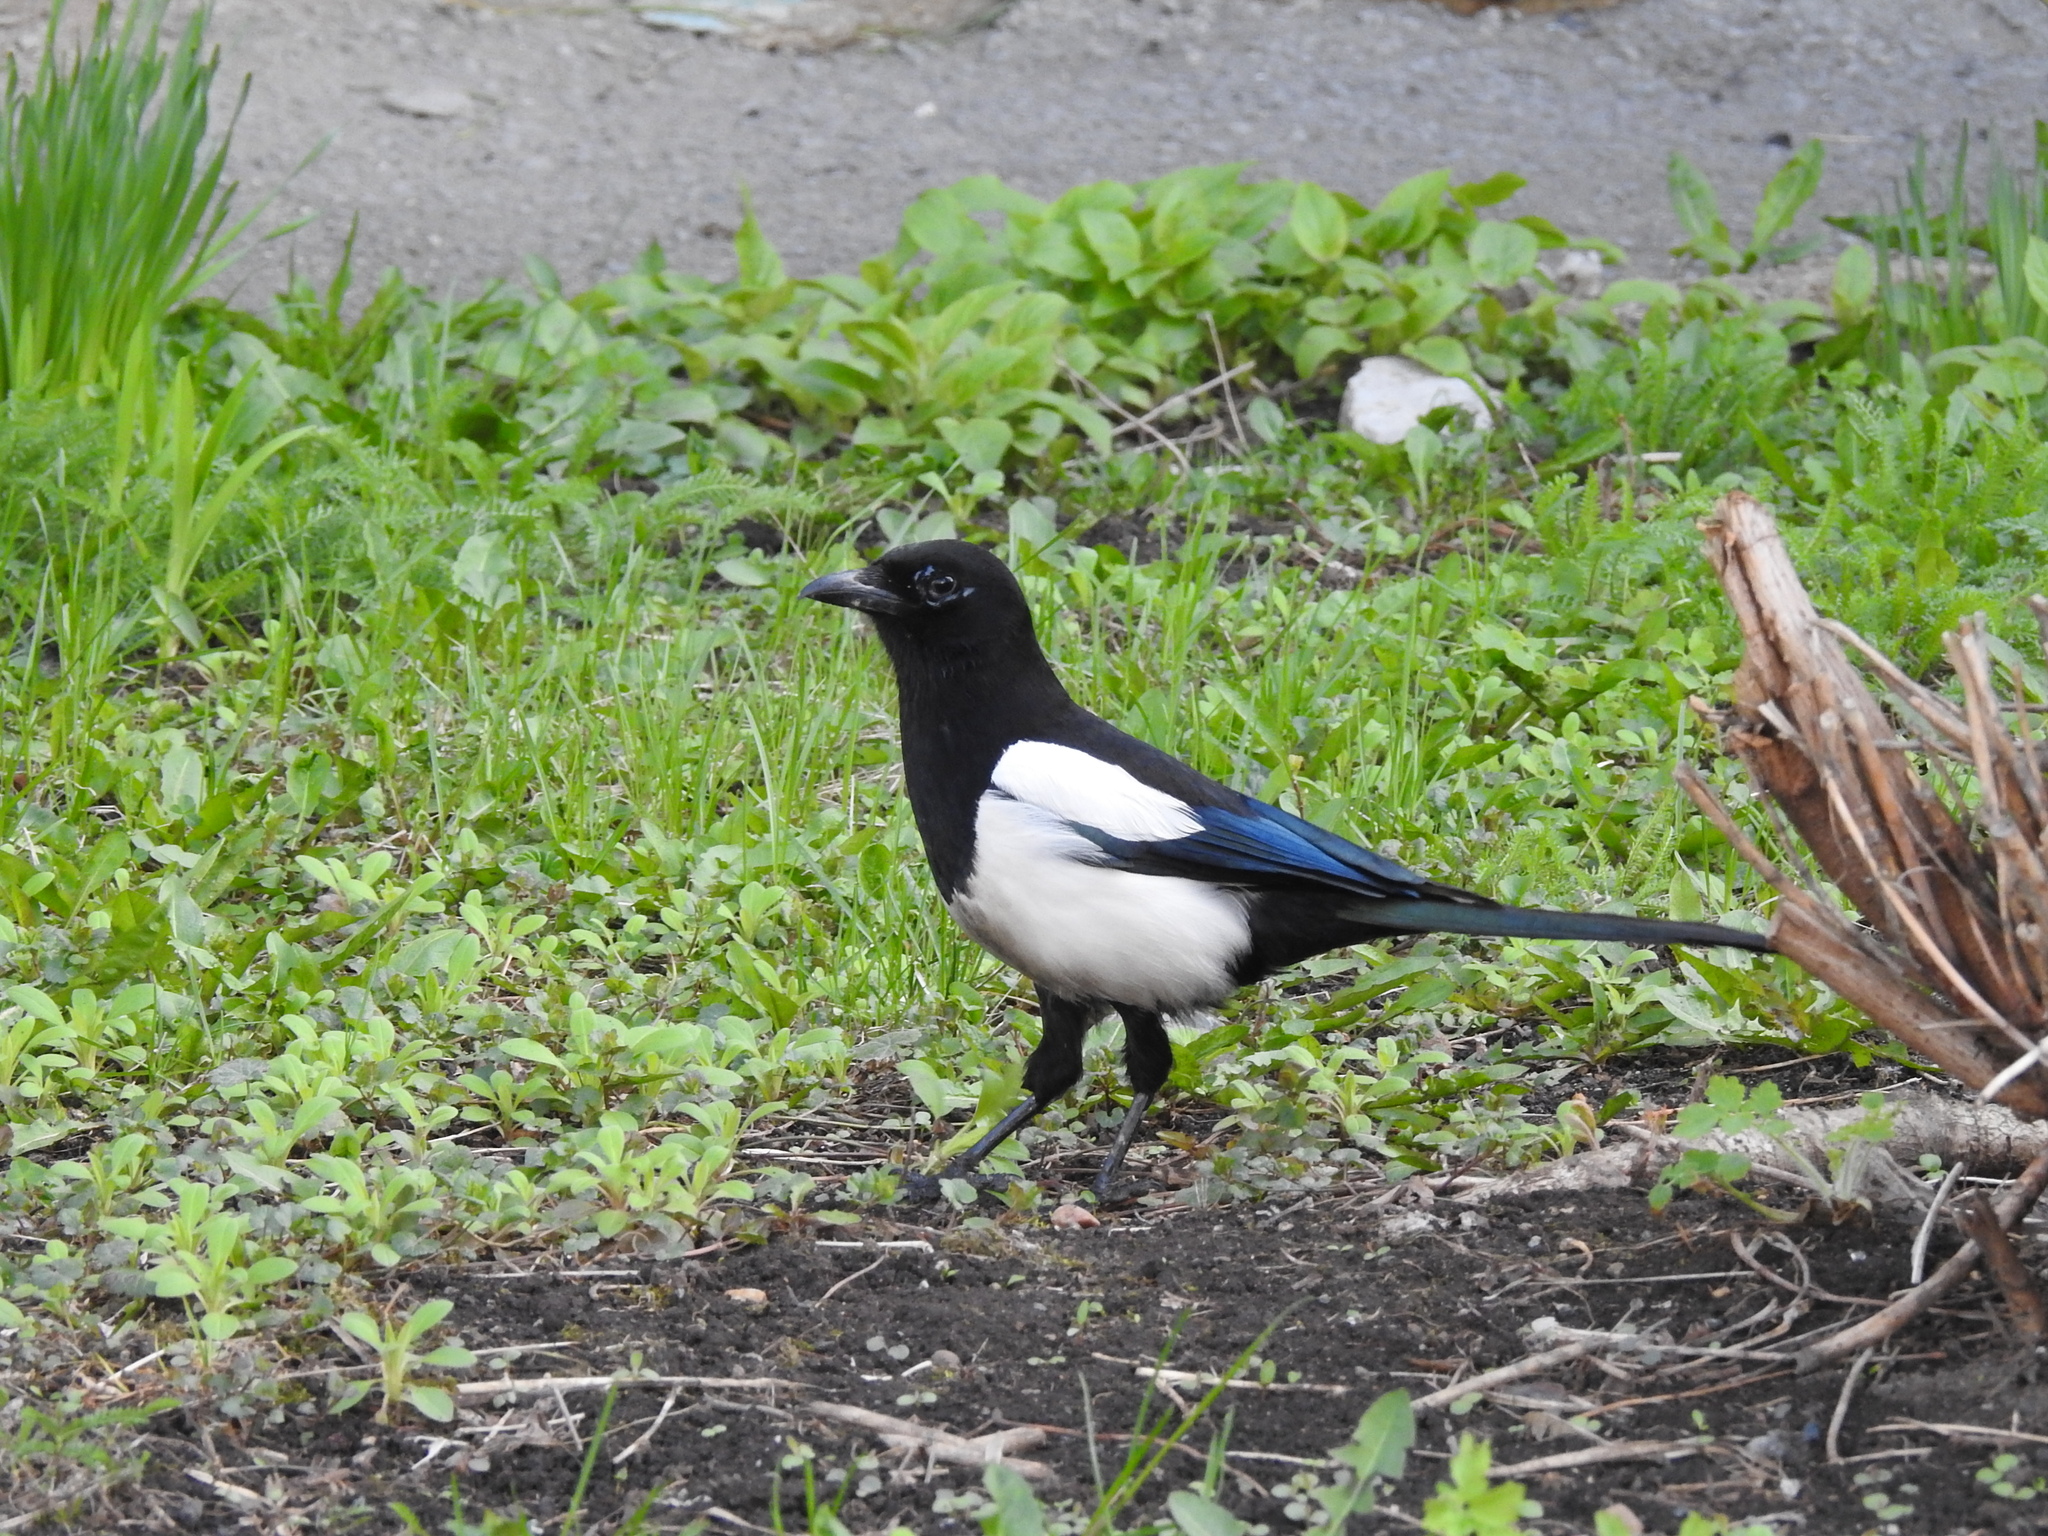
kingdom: Animalia
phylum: Chordata
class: Aves
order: Passeriformes
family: Corvidae
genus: Pica
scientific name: Pica pica
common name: Eurasian magpie
